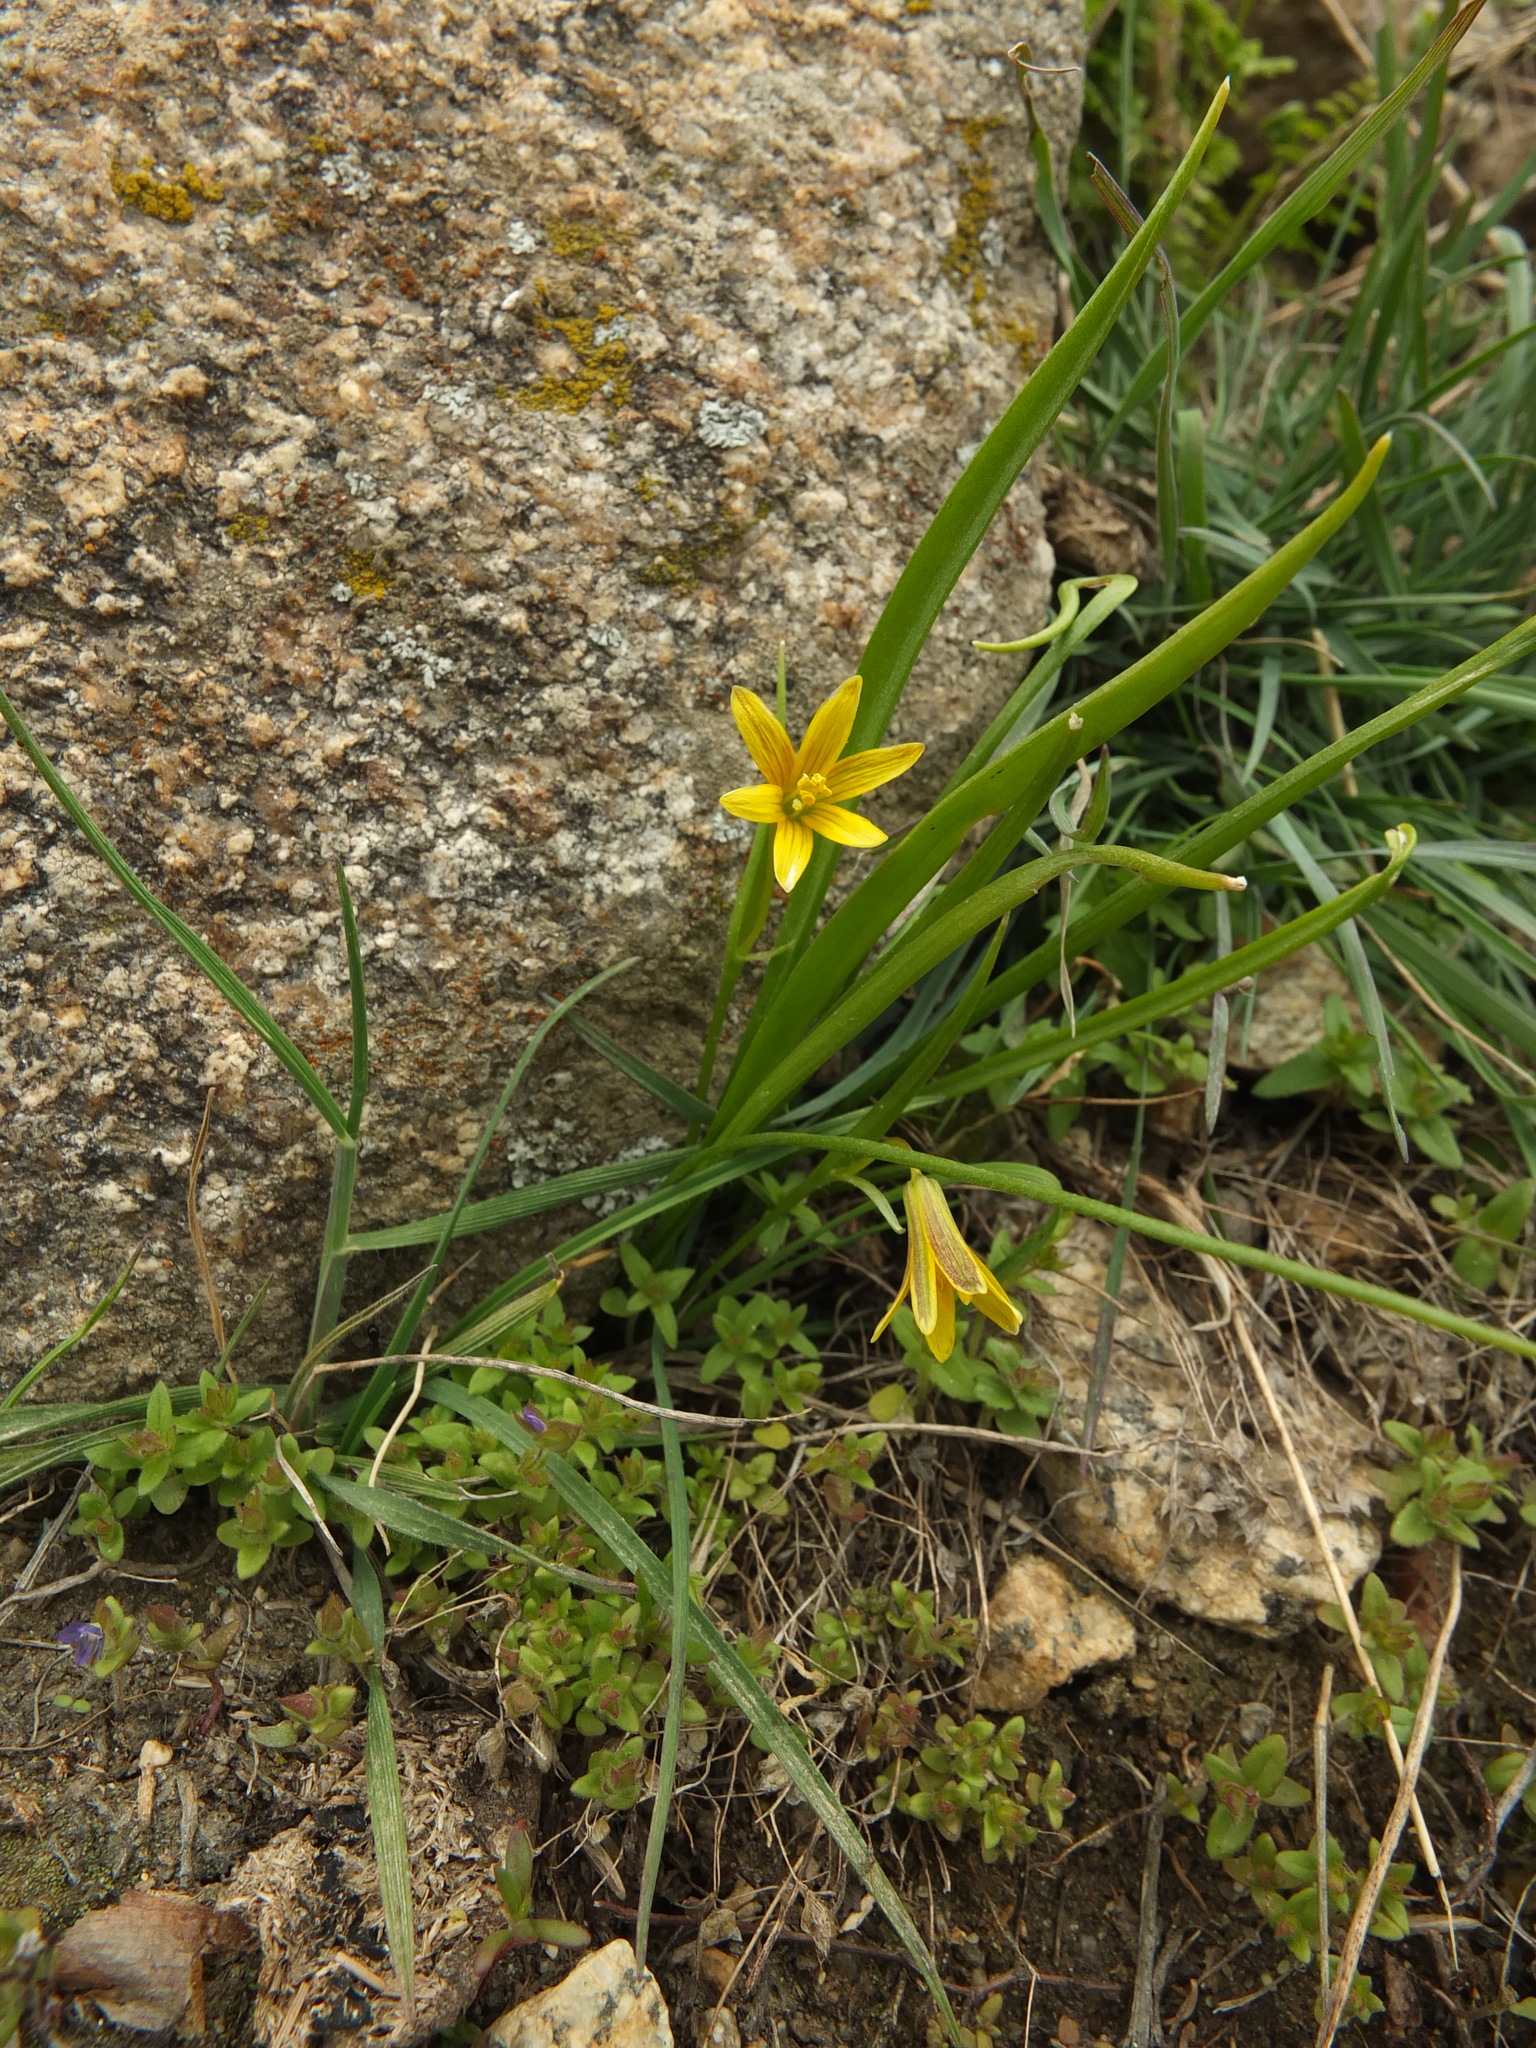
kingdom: Plantae
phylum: Tracheophyta
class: Liliopsida
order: Liliales
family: Liliaceae
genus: Gagea
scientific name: Gagea lutea
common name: Yellow star-of-bethlehem
